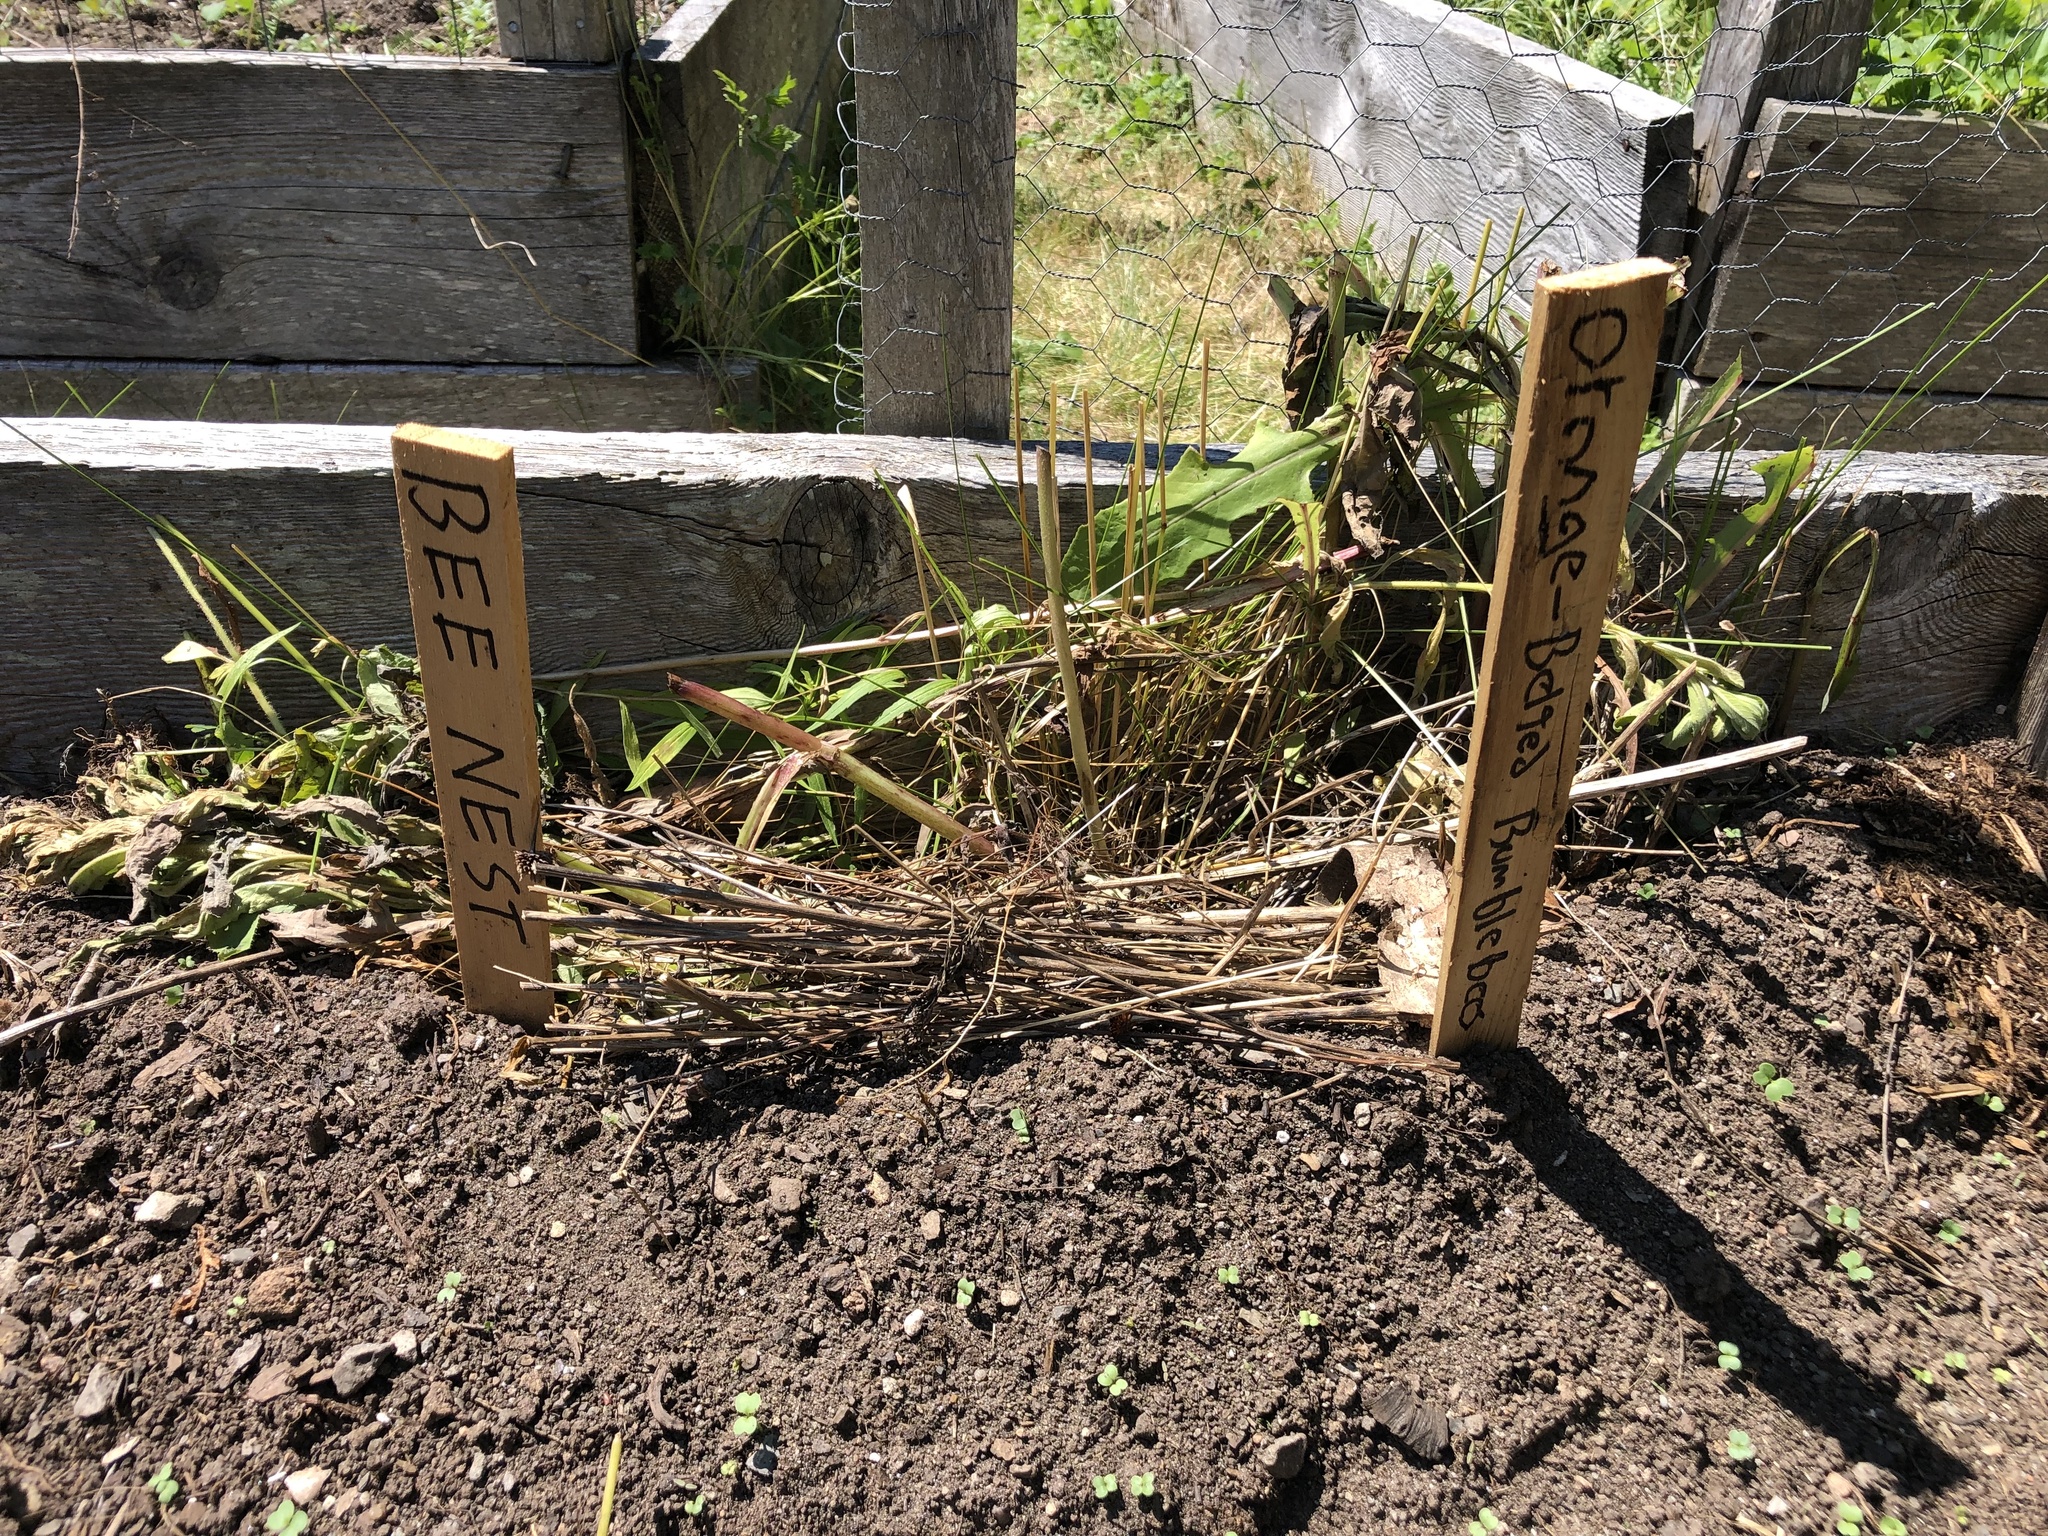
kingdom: Animalia
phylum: Arthropoda
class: Insecta
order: Hymenoptera
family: Apidae
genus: Bombus
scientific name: Bombus terricola
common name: Yellow-banded bumble bee
